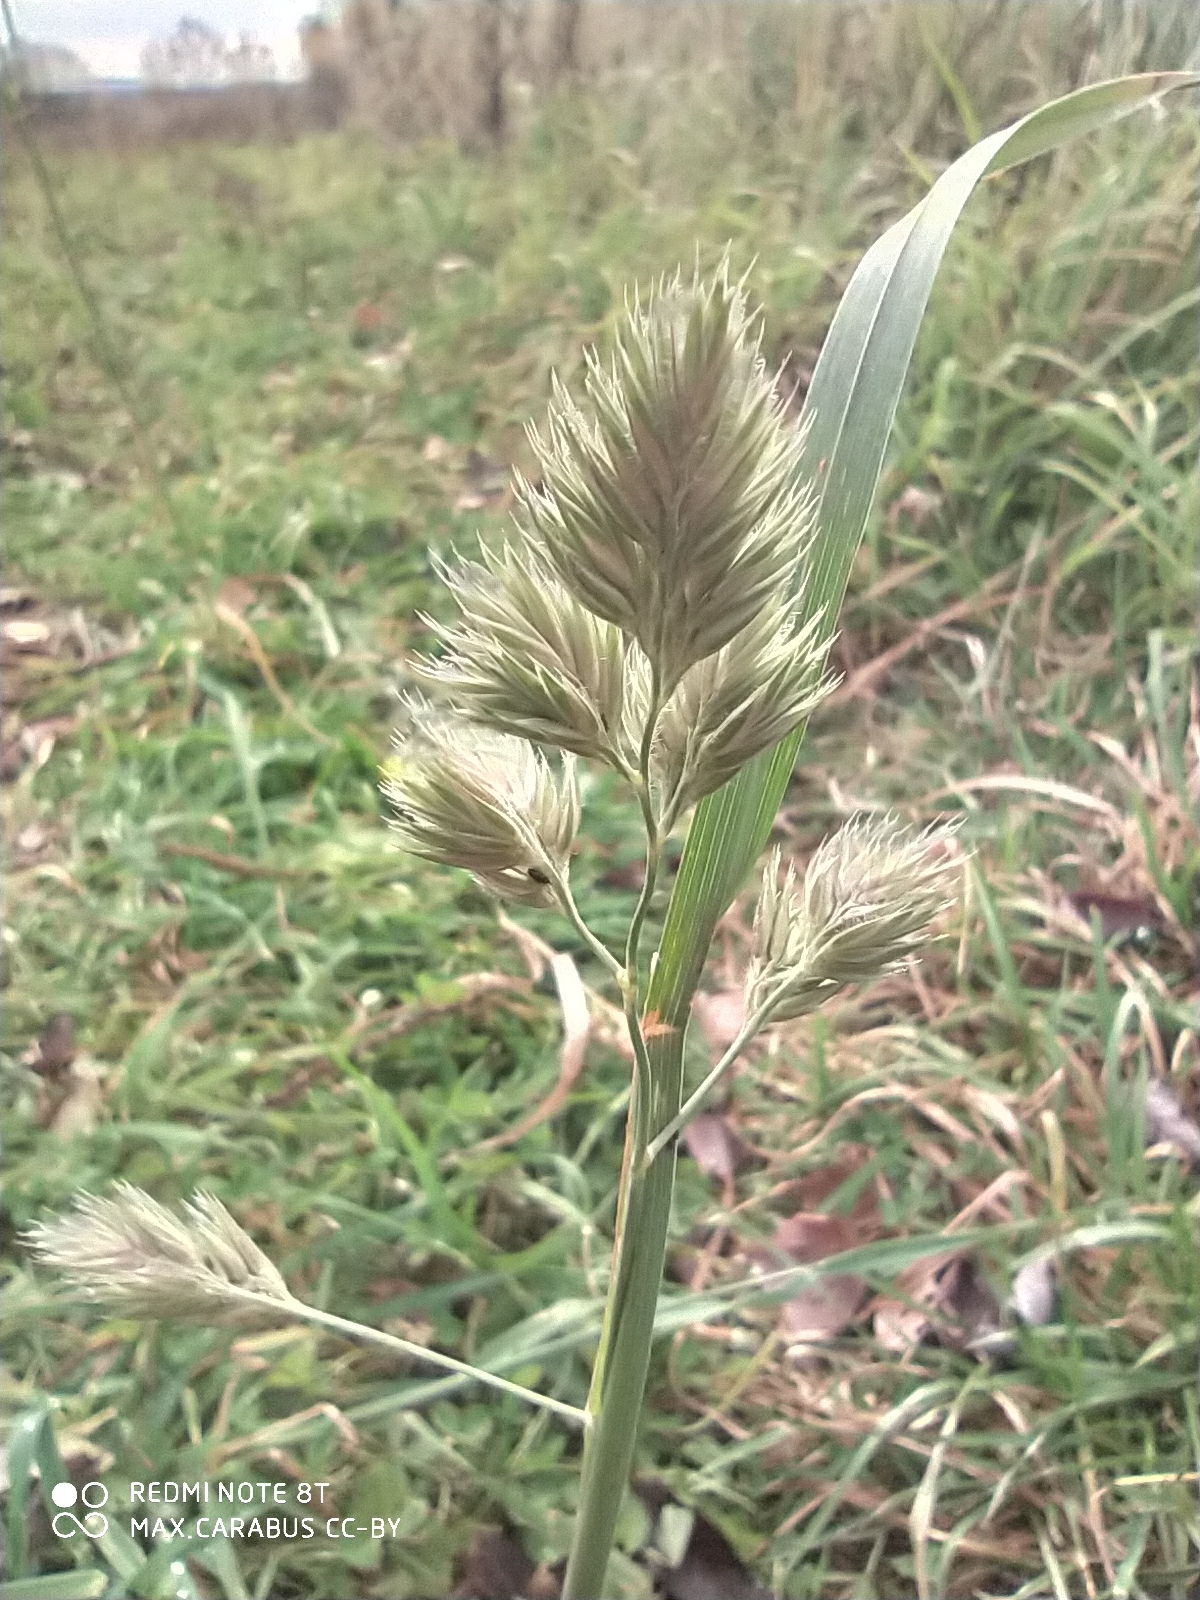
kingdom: Plantae
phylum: Tracheophyta
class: Liliopsida
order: Poales
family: Poaceae
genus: Dactylis
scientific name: Dactylis glomerata
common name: Orchardgrass
